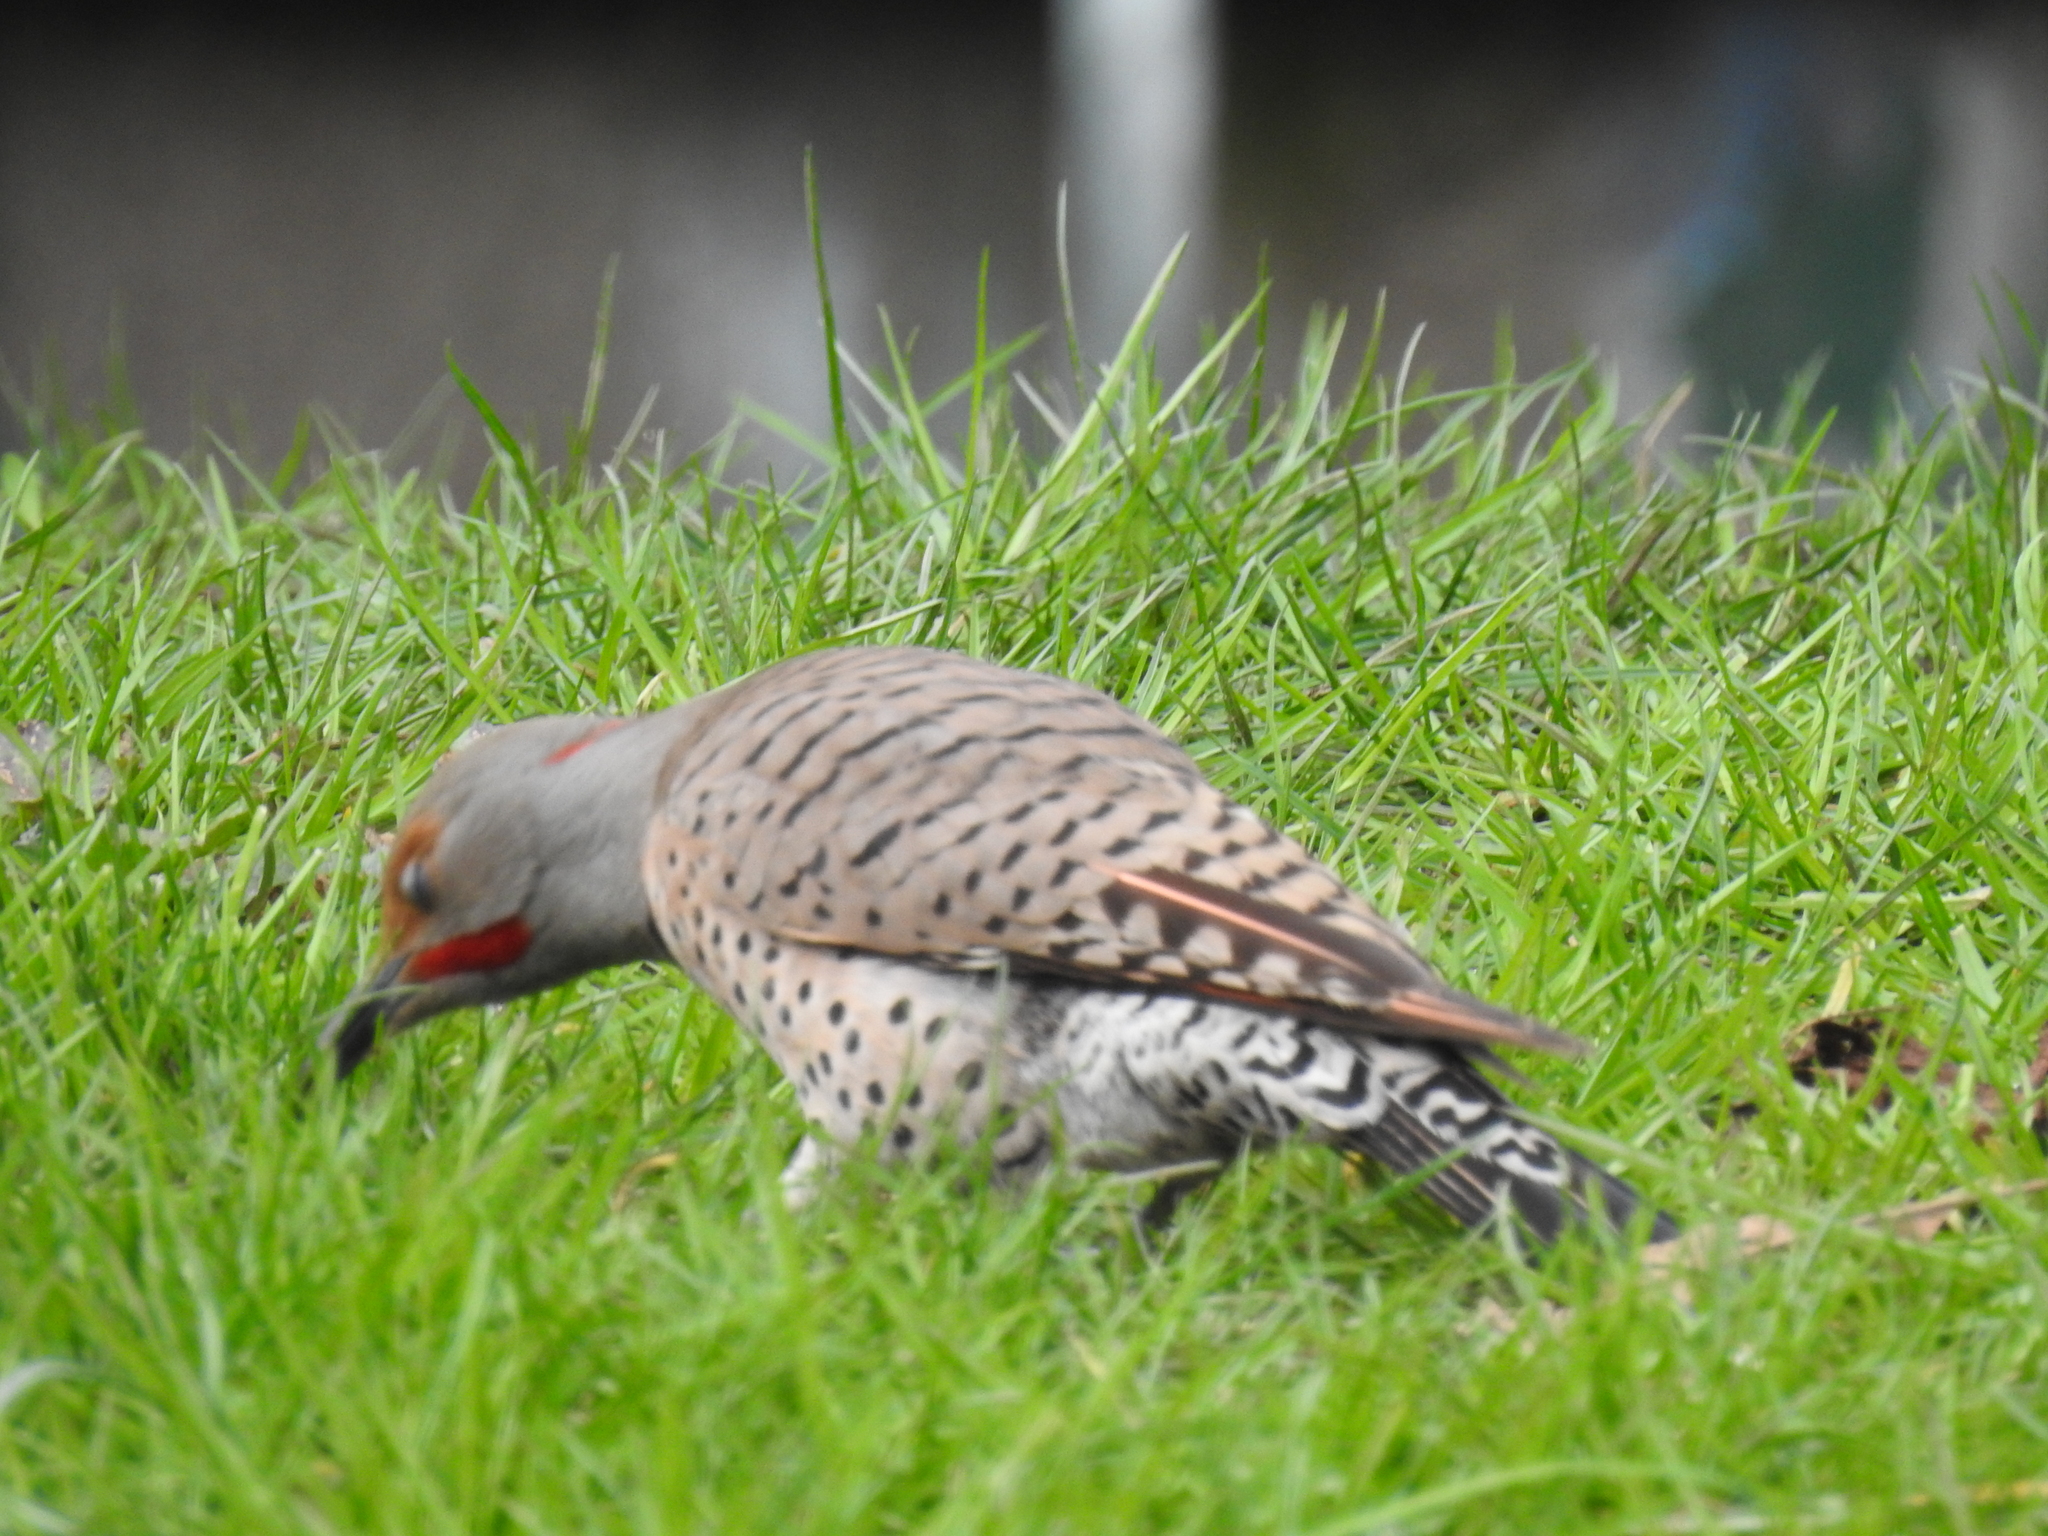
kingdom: Animalia
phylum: Chordata
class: Aves
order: Piciformes
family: Picidae
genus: Colaptes
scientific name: Colaptes
